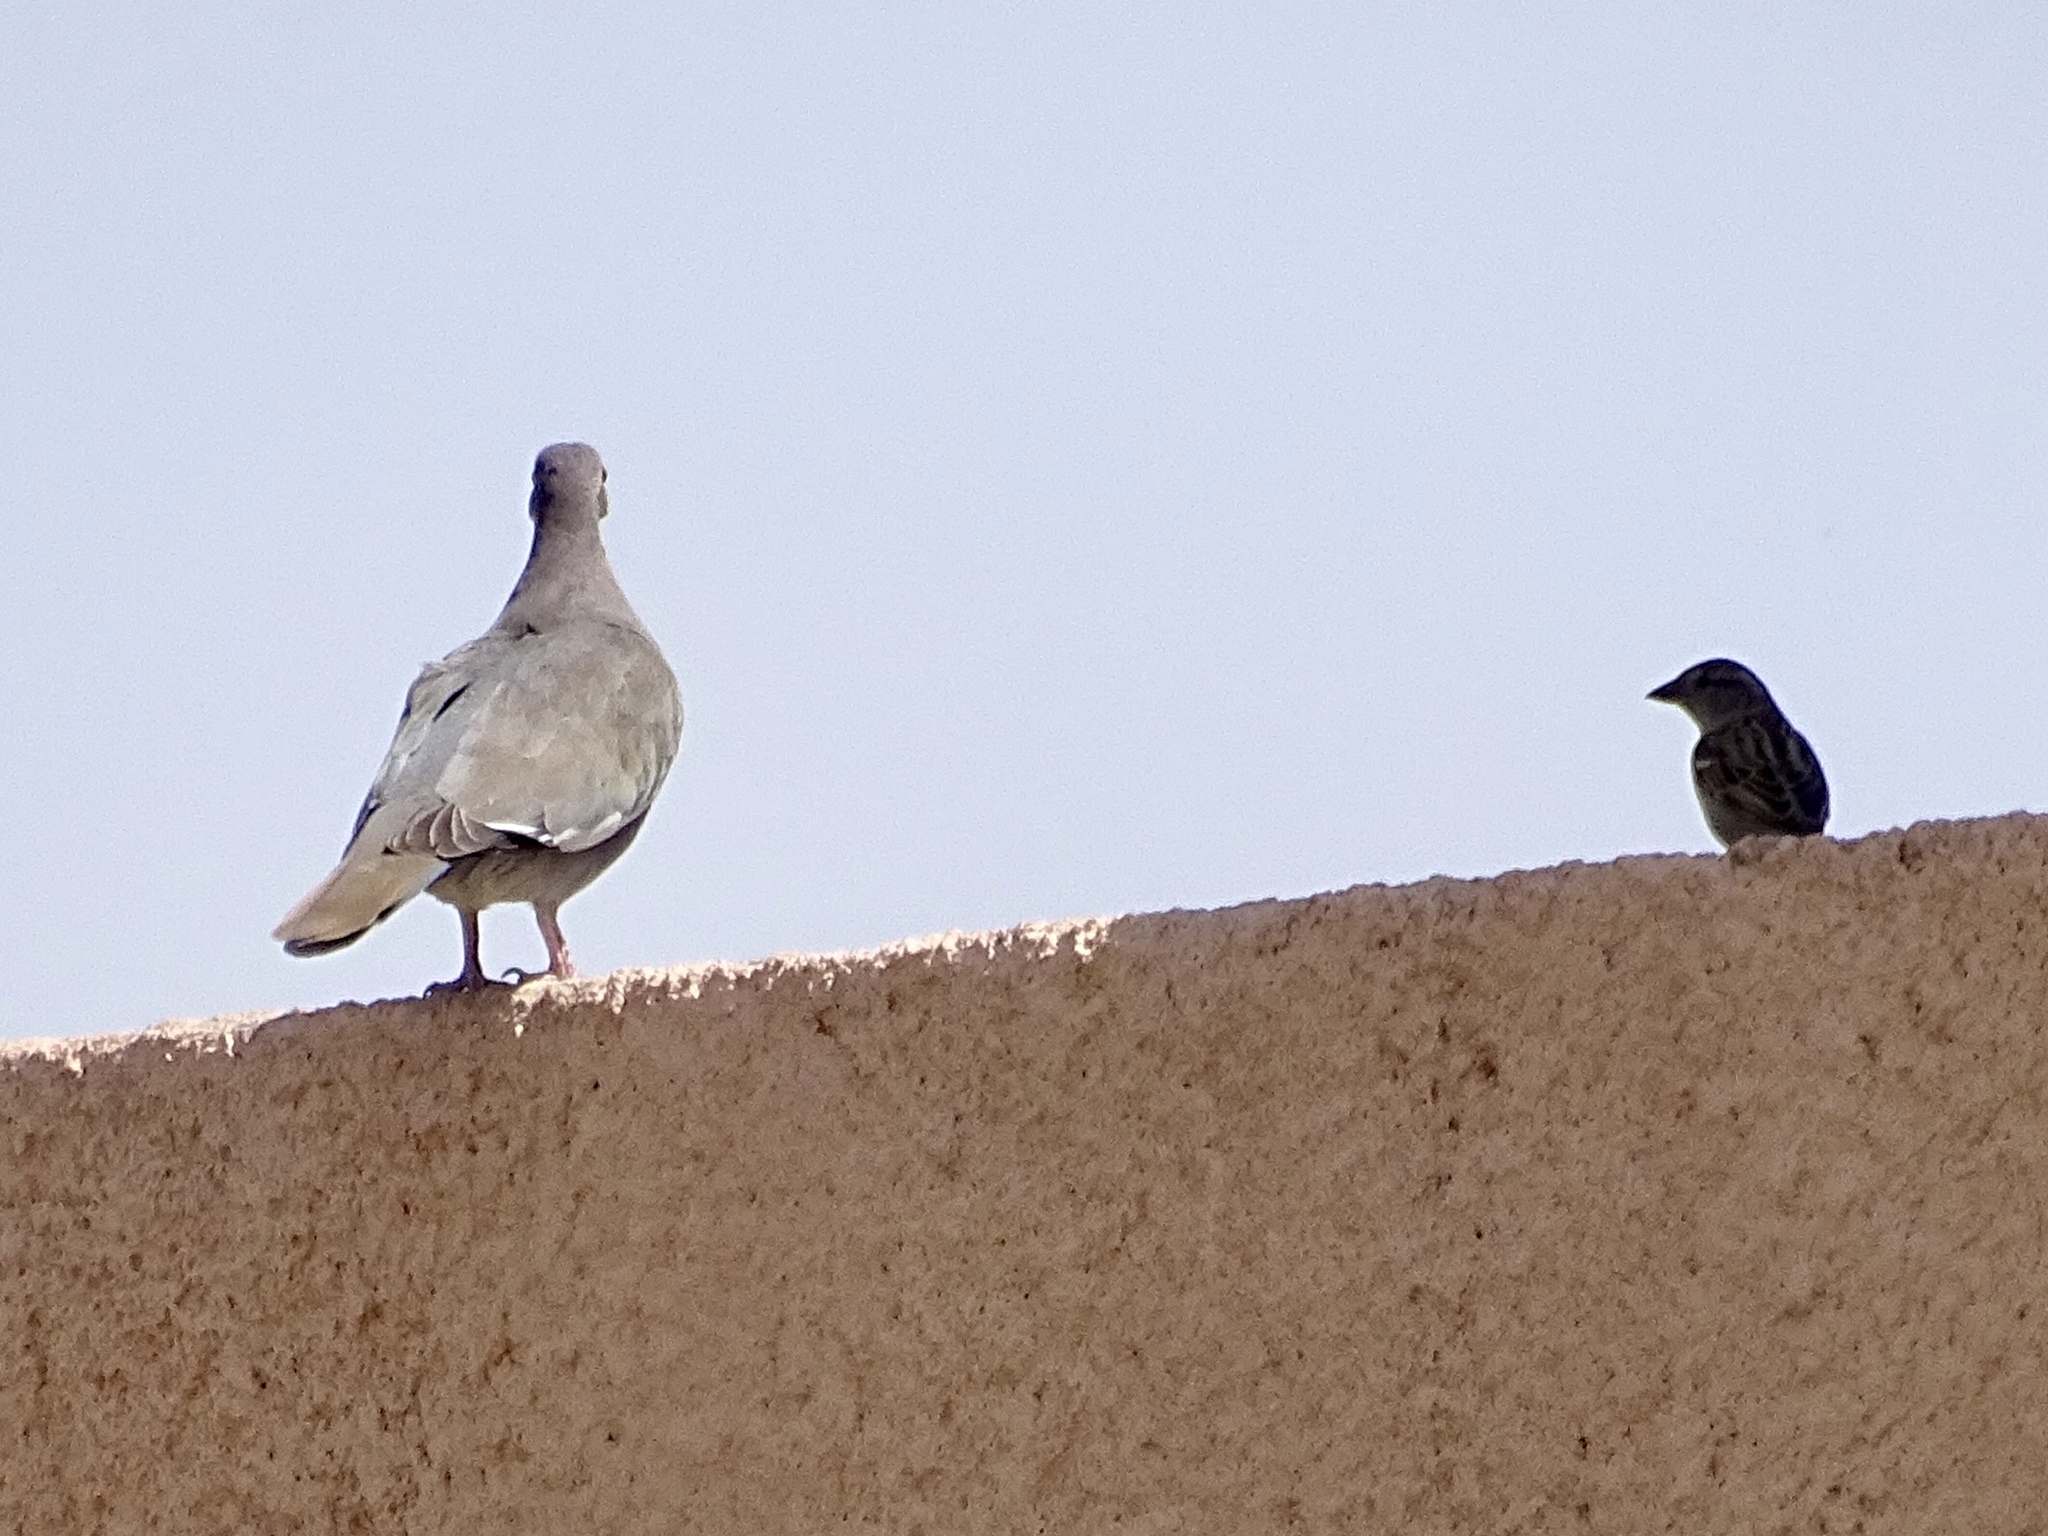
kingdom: Animalia
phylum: Chordata
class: Aves
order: Columbiformes
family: Columbidae
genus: Zenaida
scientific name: Zenaida asiatica
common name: White-winged dove
